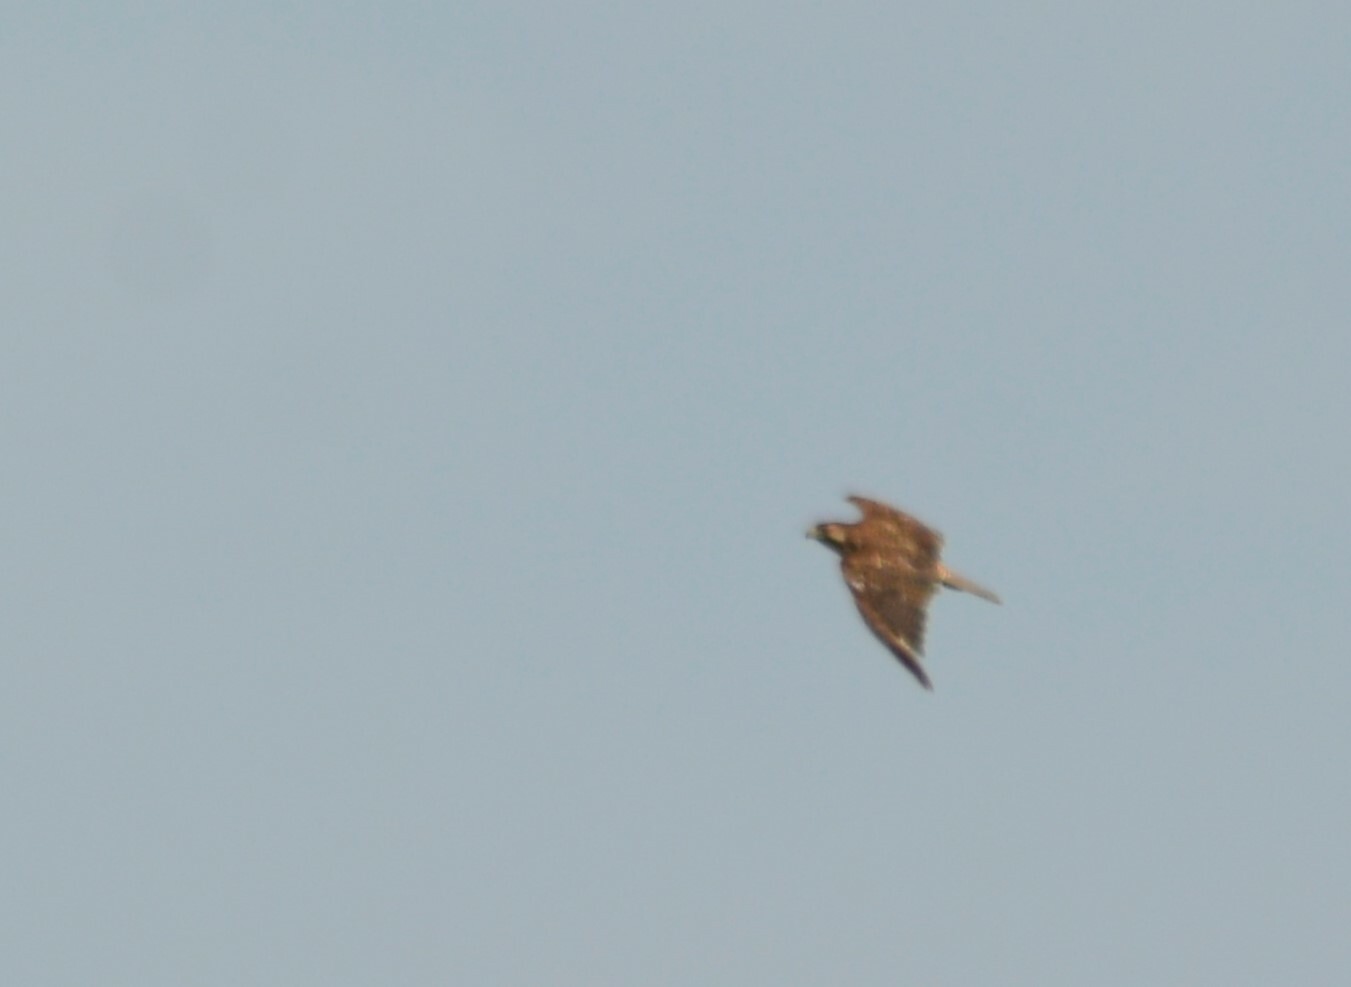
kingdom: Animalia
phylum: Chordata
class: Aves
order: Accipitriformes
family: Accipitridae
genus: Buteo
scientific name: Buteo polyosoma
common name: Variable hawk
